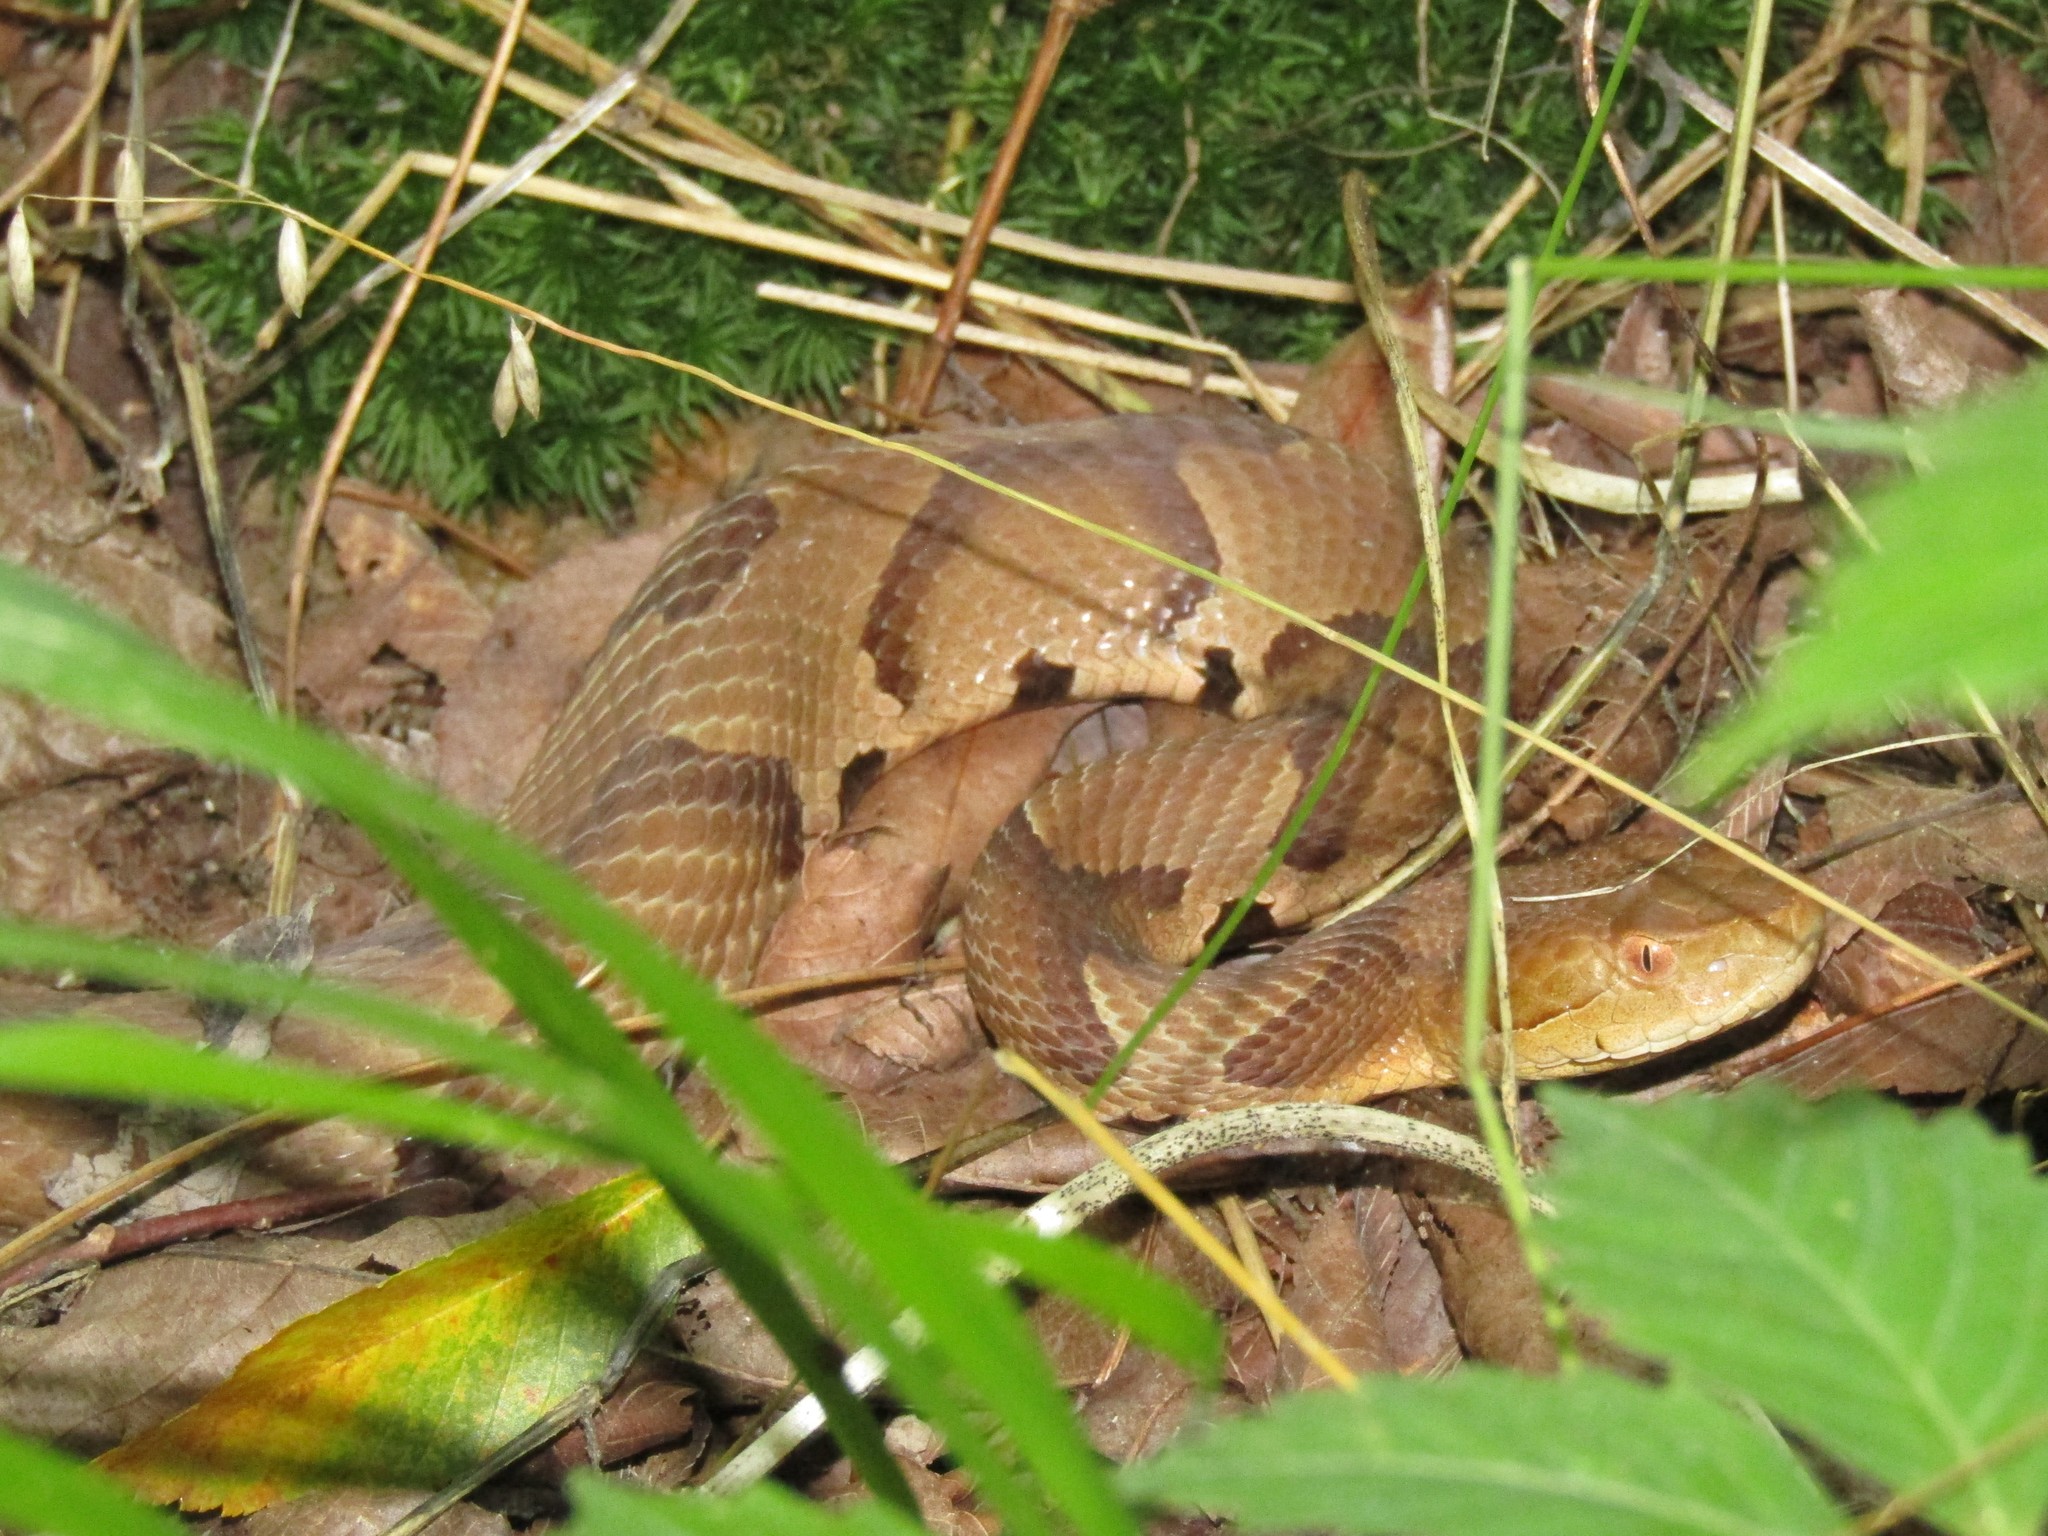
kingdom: Animalia
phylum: Chordata
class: Squamata
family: Viperidae
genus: Agkistrodon
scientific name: Agkistrodon contortrix
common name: Northern copperhead
